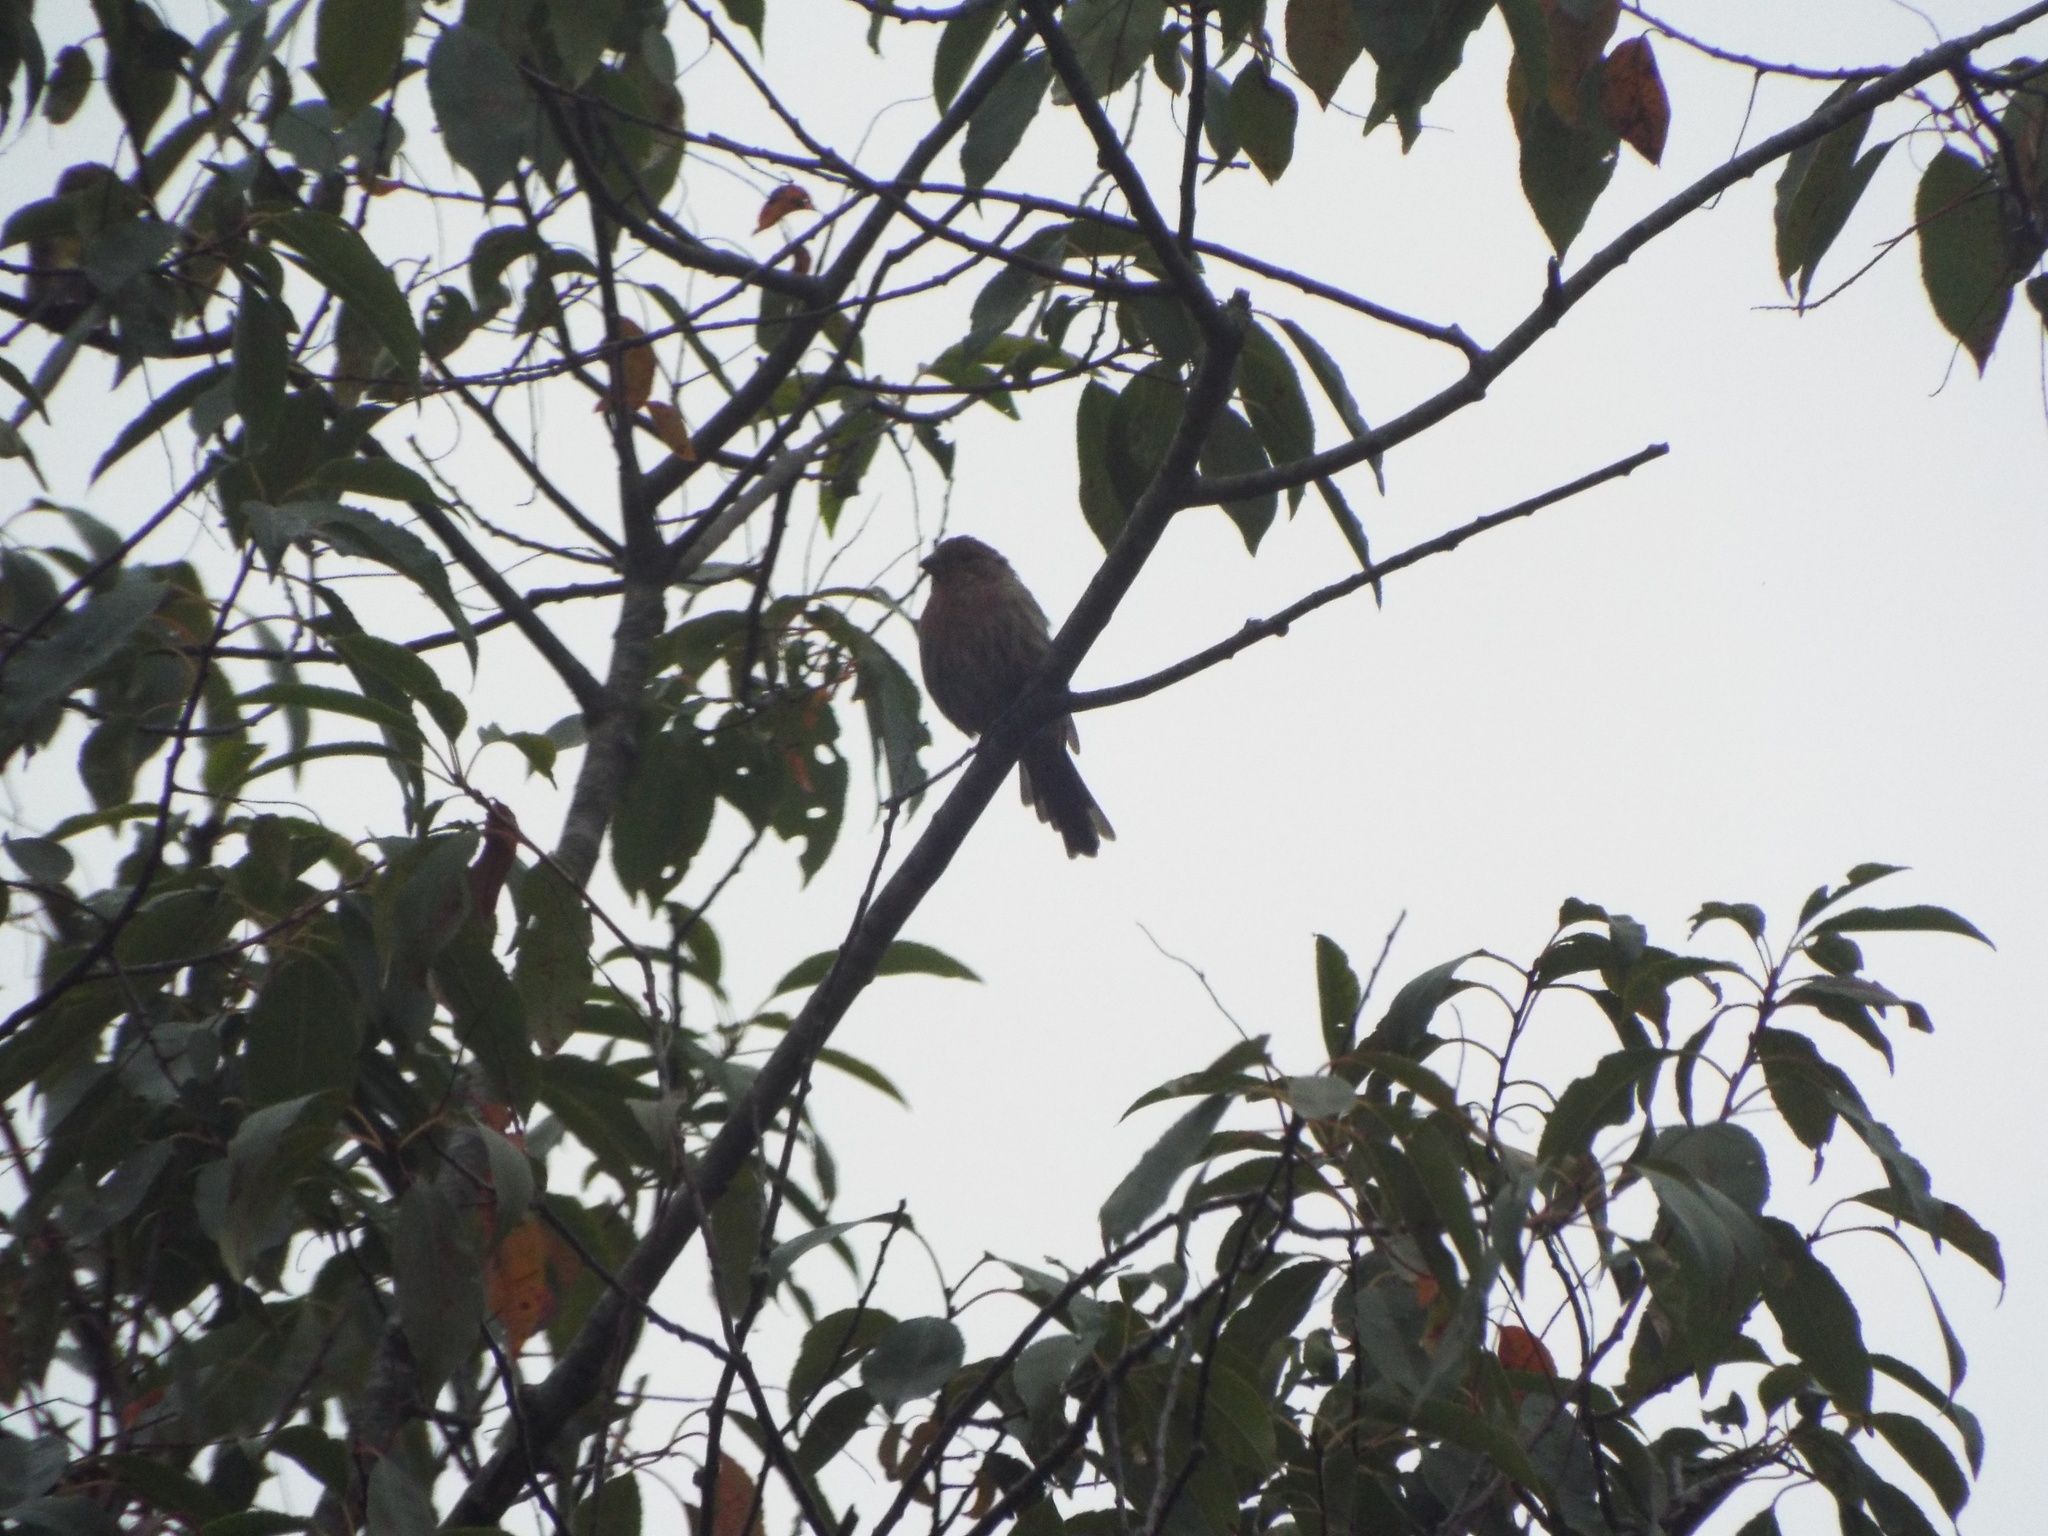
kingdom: Animalia
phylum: Chordata
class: Aves
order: Passeriformes
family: Fringillidae
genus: Haemorhous
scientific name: Haemorhous mexicanus
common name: House finch
